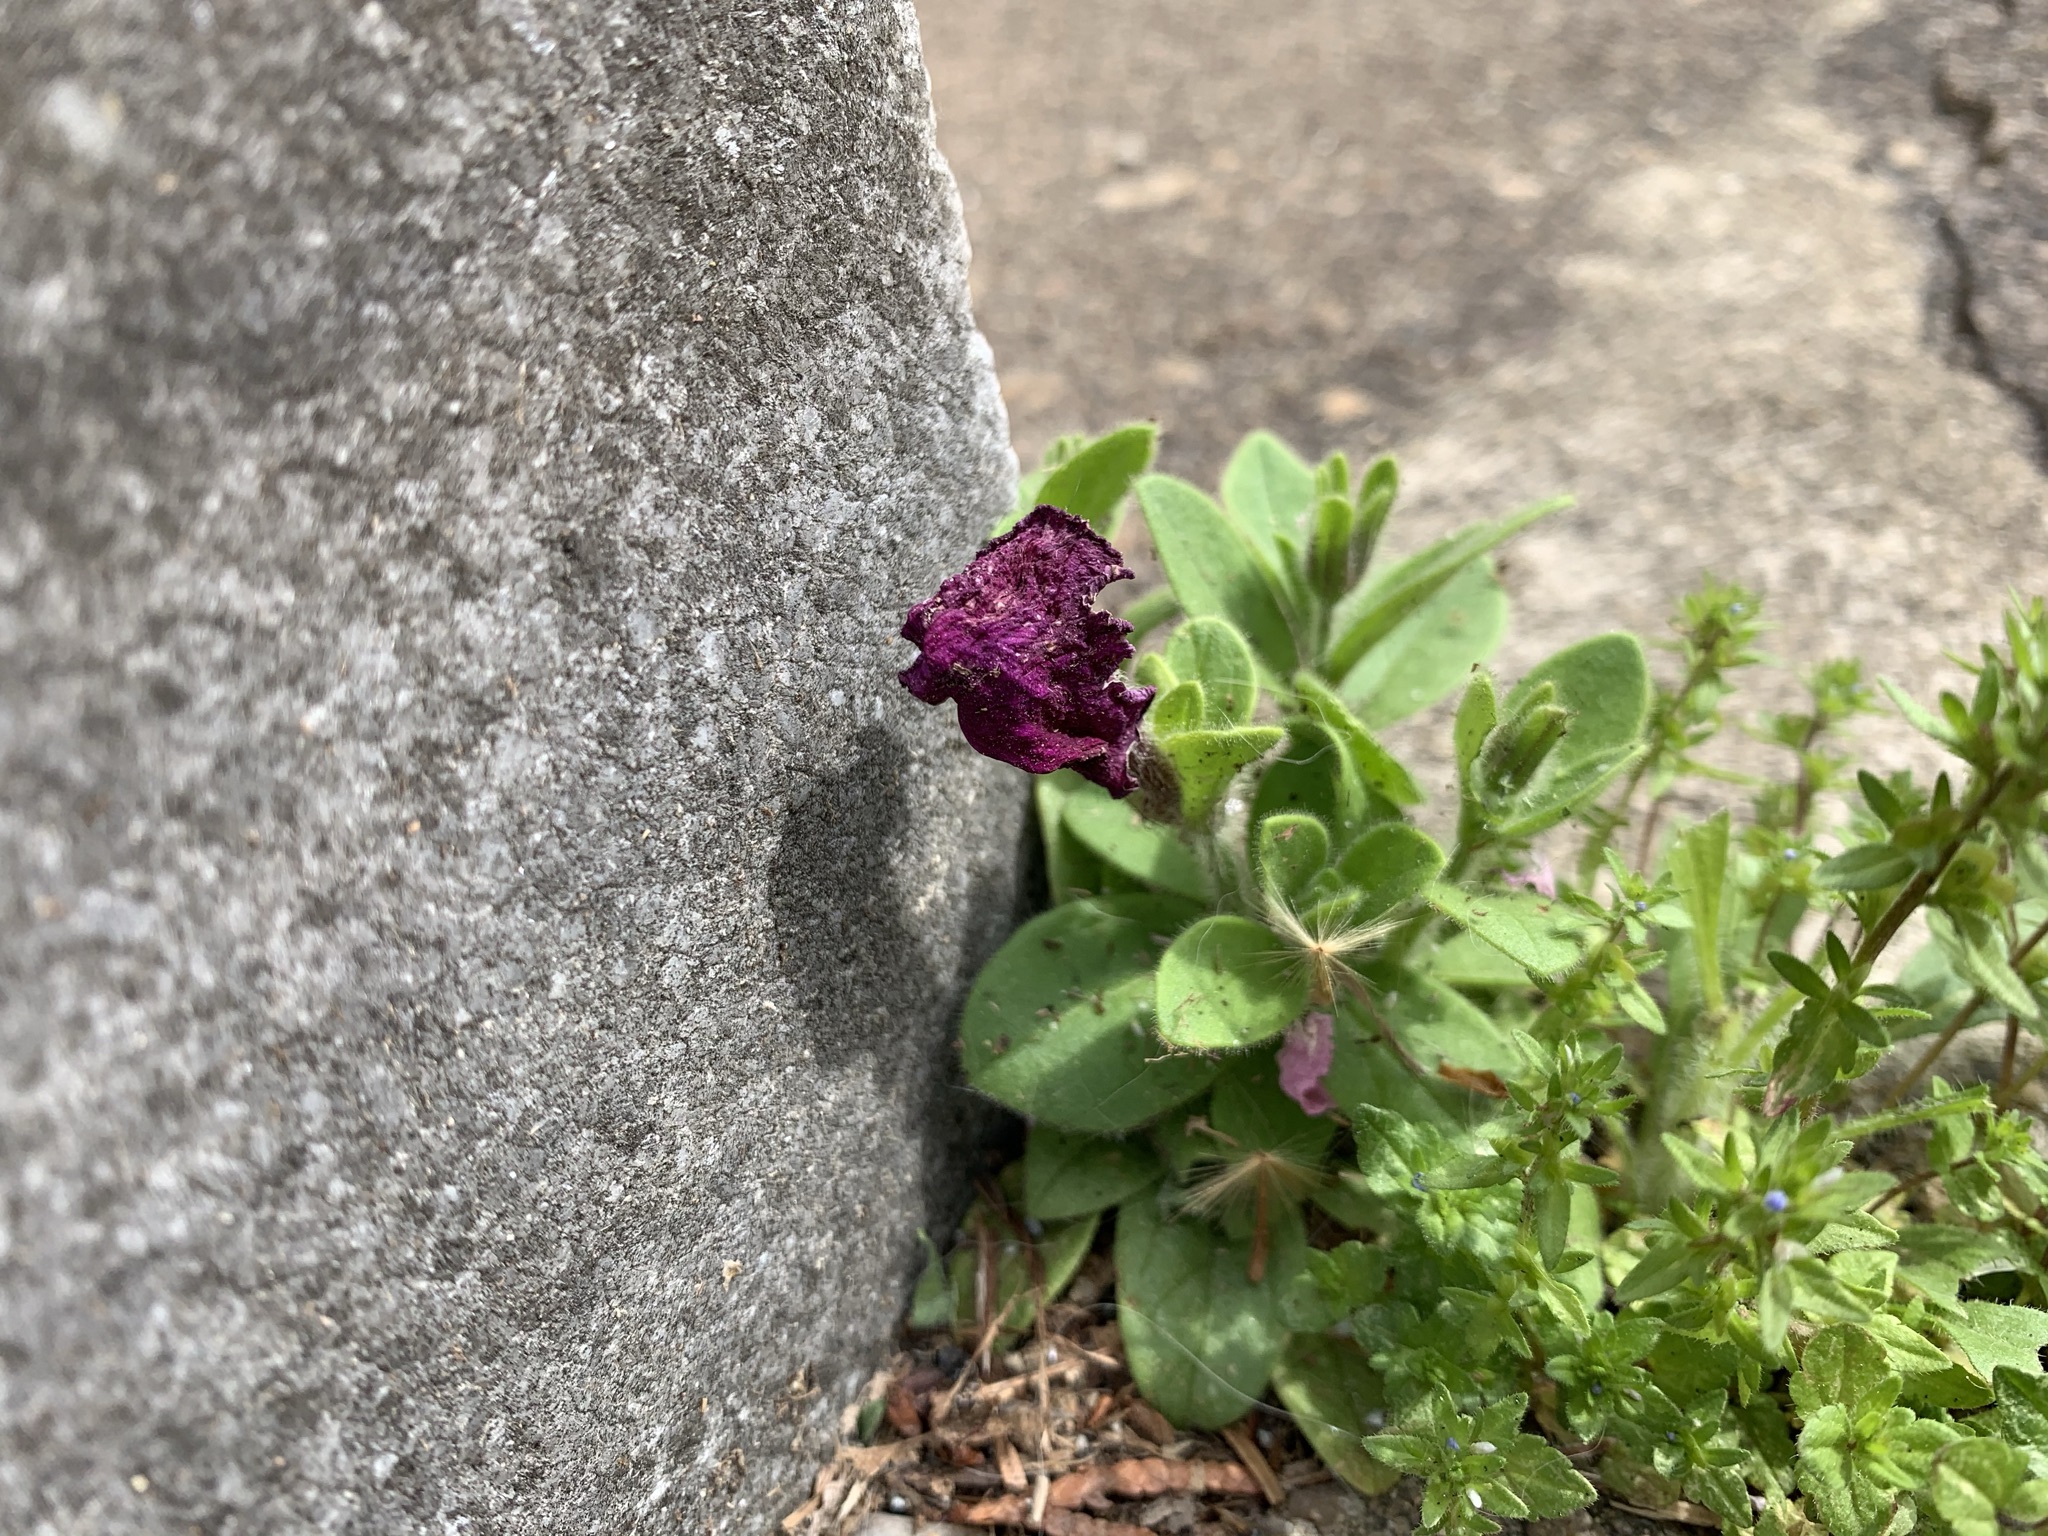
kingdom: Plantae
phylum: Tracheophyta
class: Magnoliopsida
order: Solanales
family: Solanaceae
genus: Petunia
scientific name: Petunia atkinsiana
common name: Petunia
